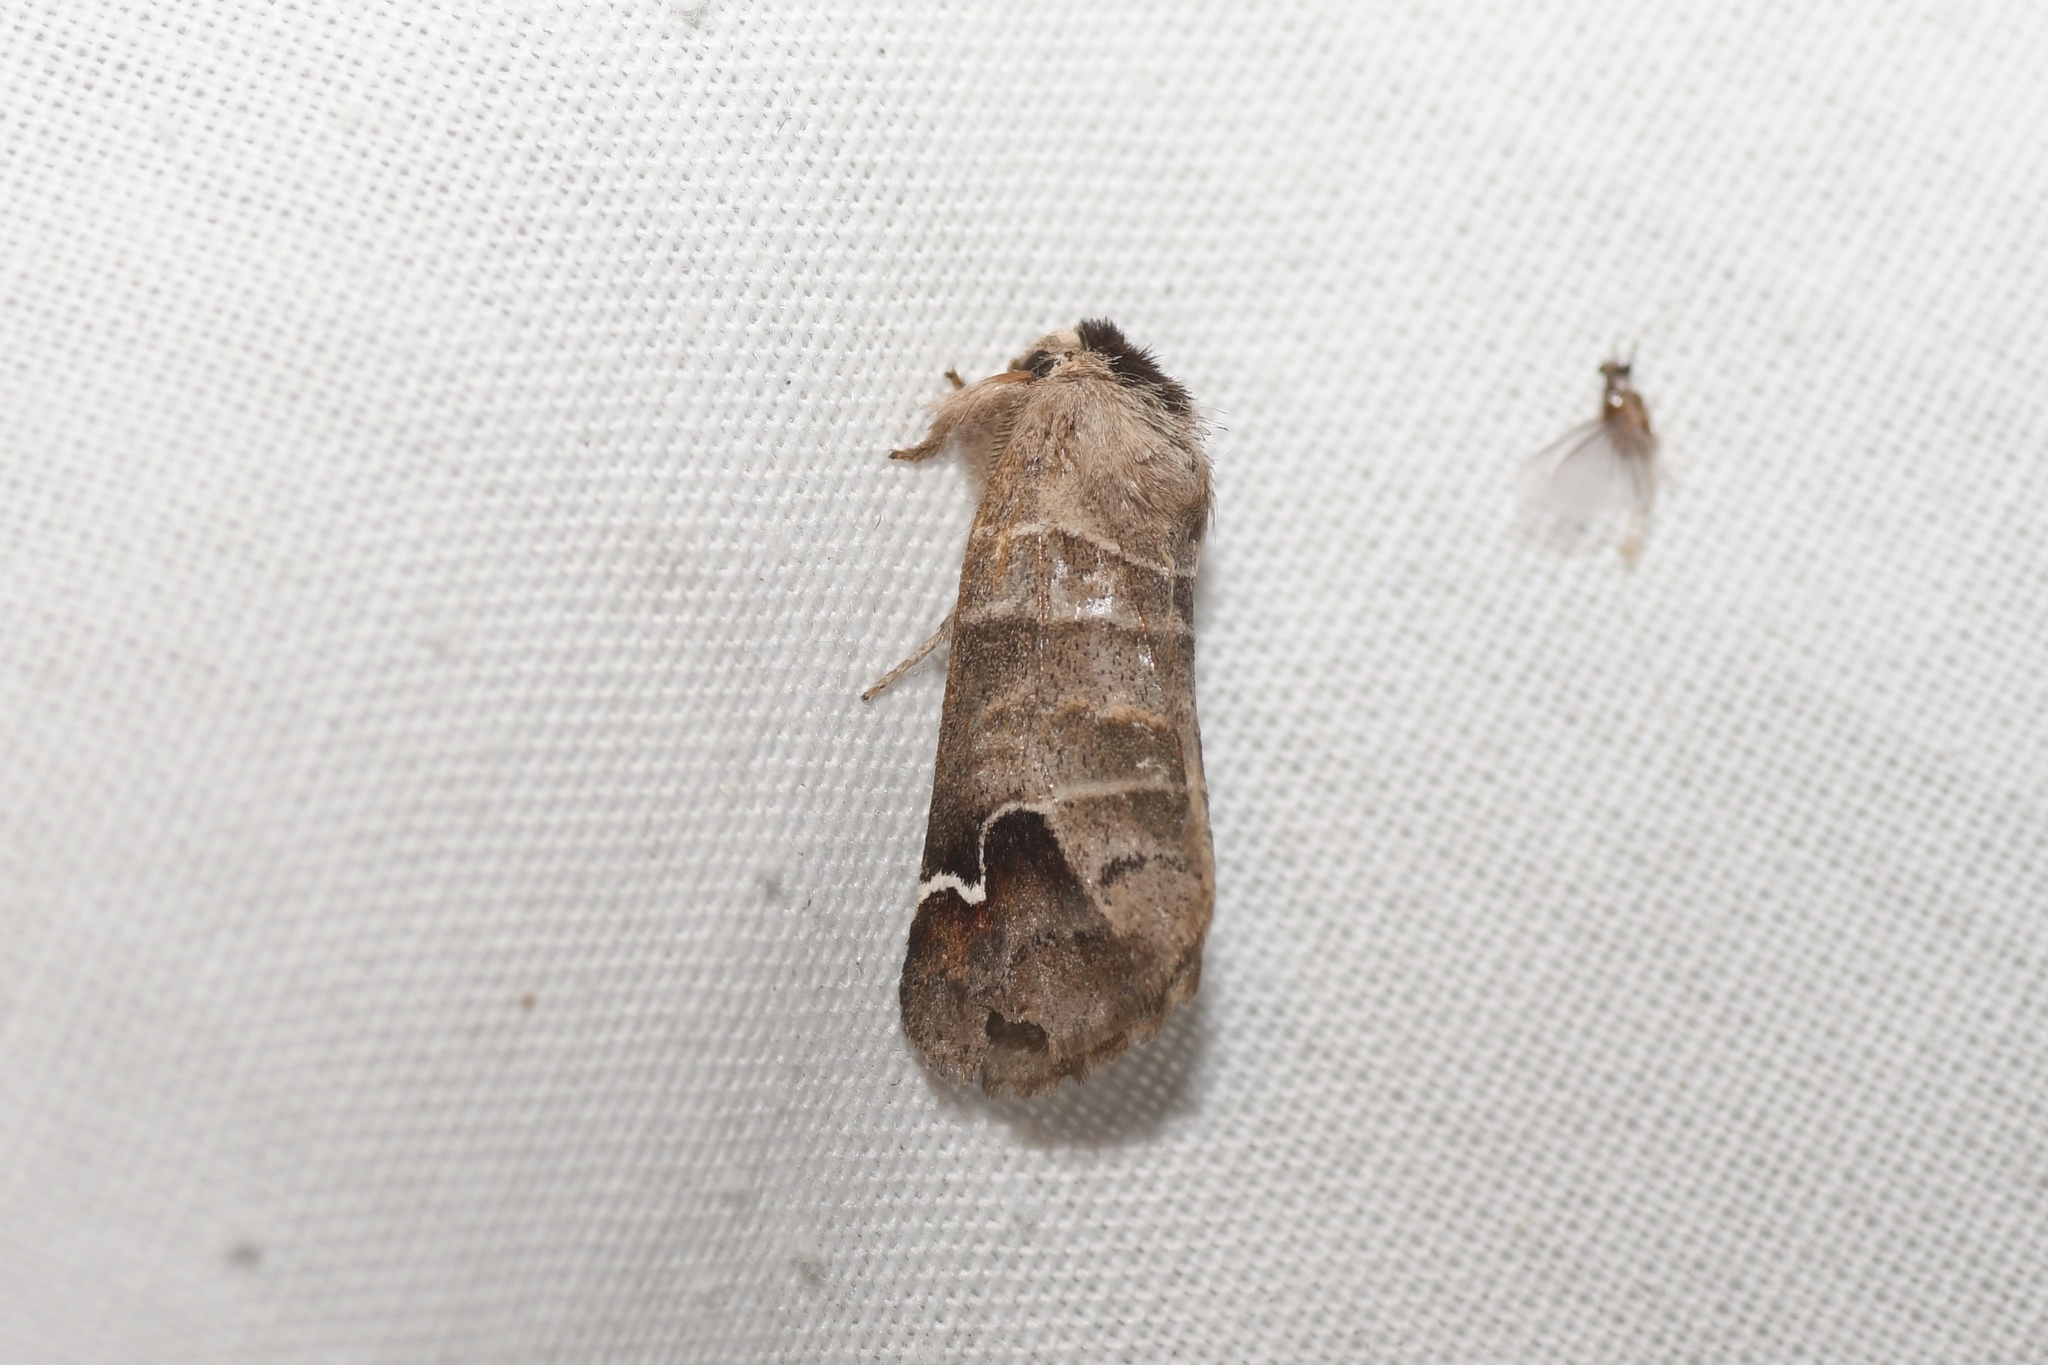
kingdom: Animalia
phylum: Arthropoda
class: Insecta
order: Lepidoptera
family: Notodontidae
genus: Clostera
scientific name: Clostera albosigma
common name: Sigmoid prominent
